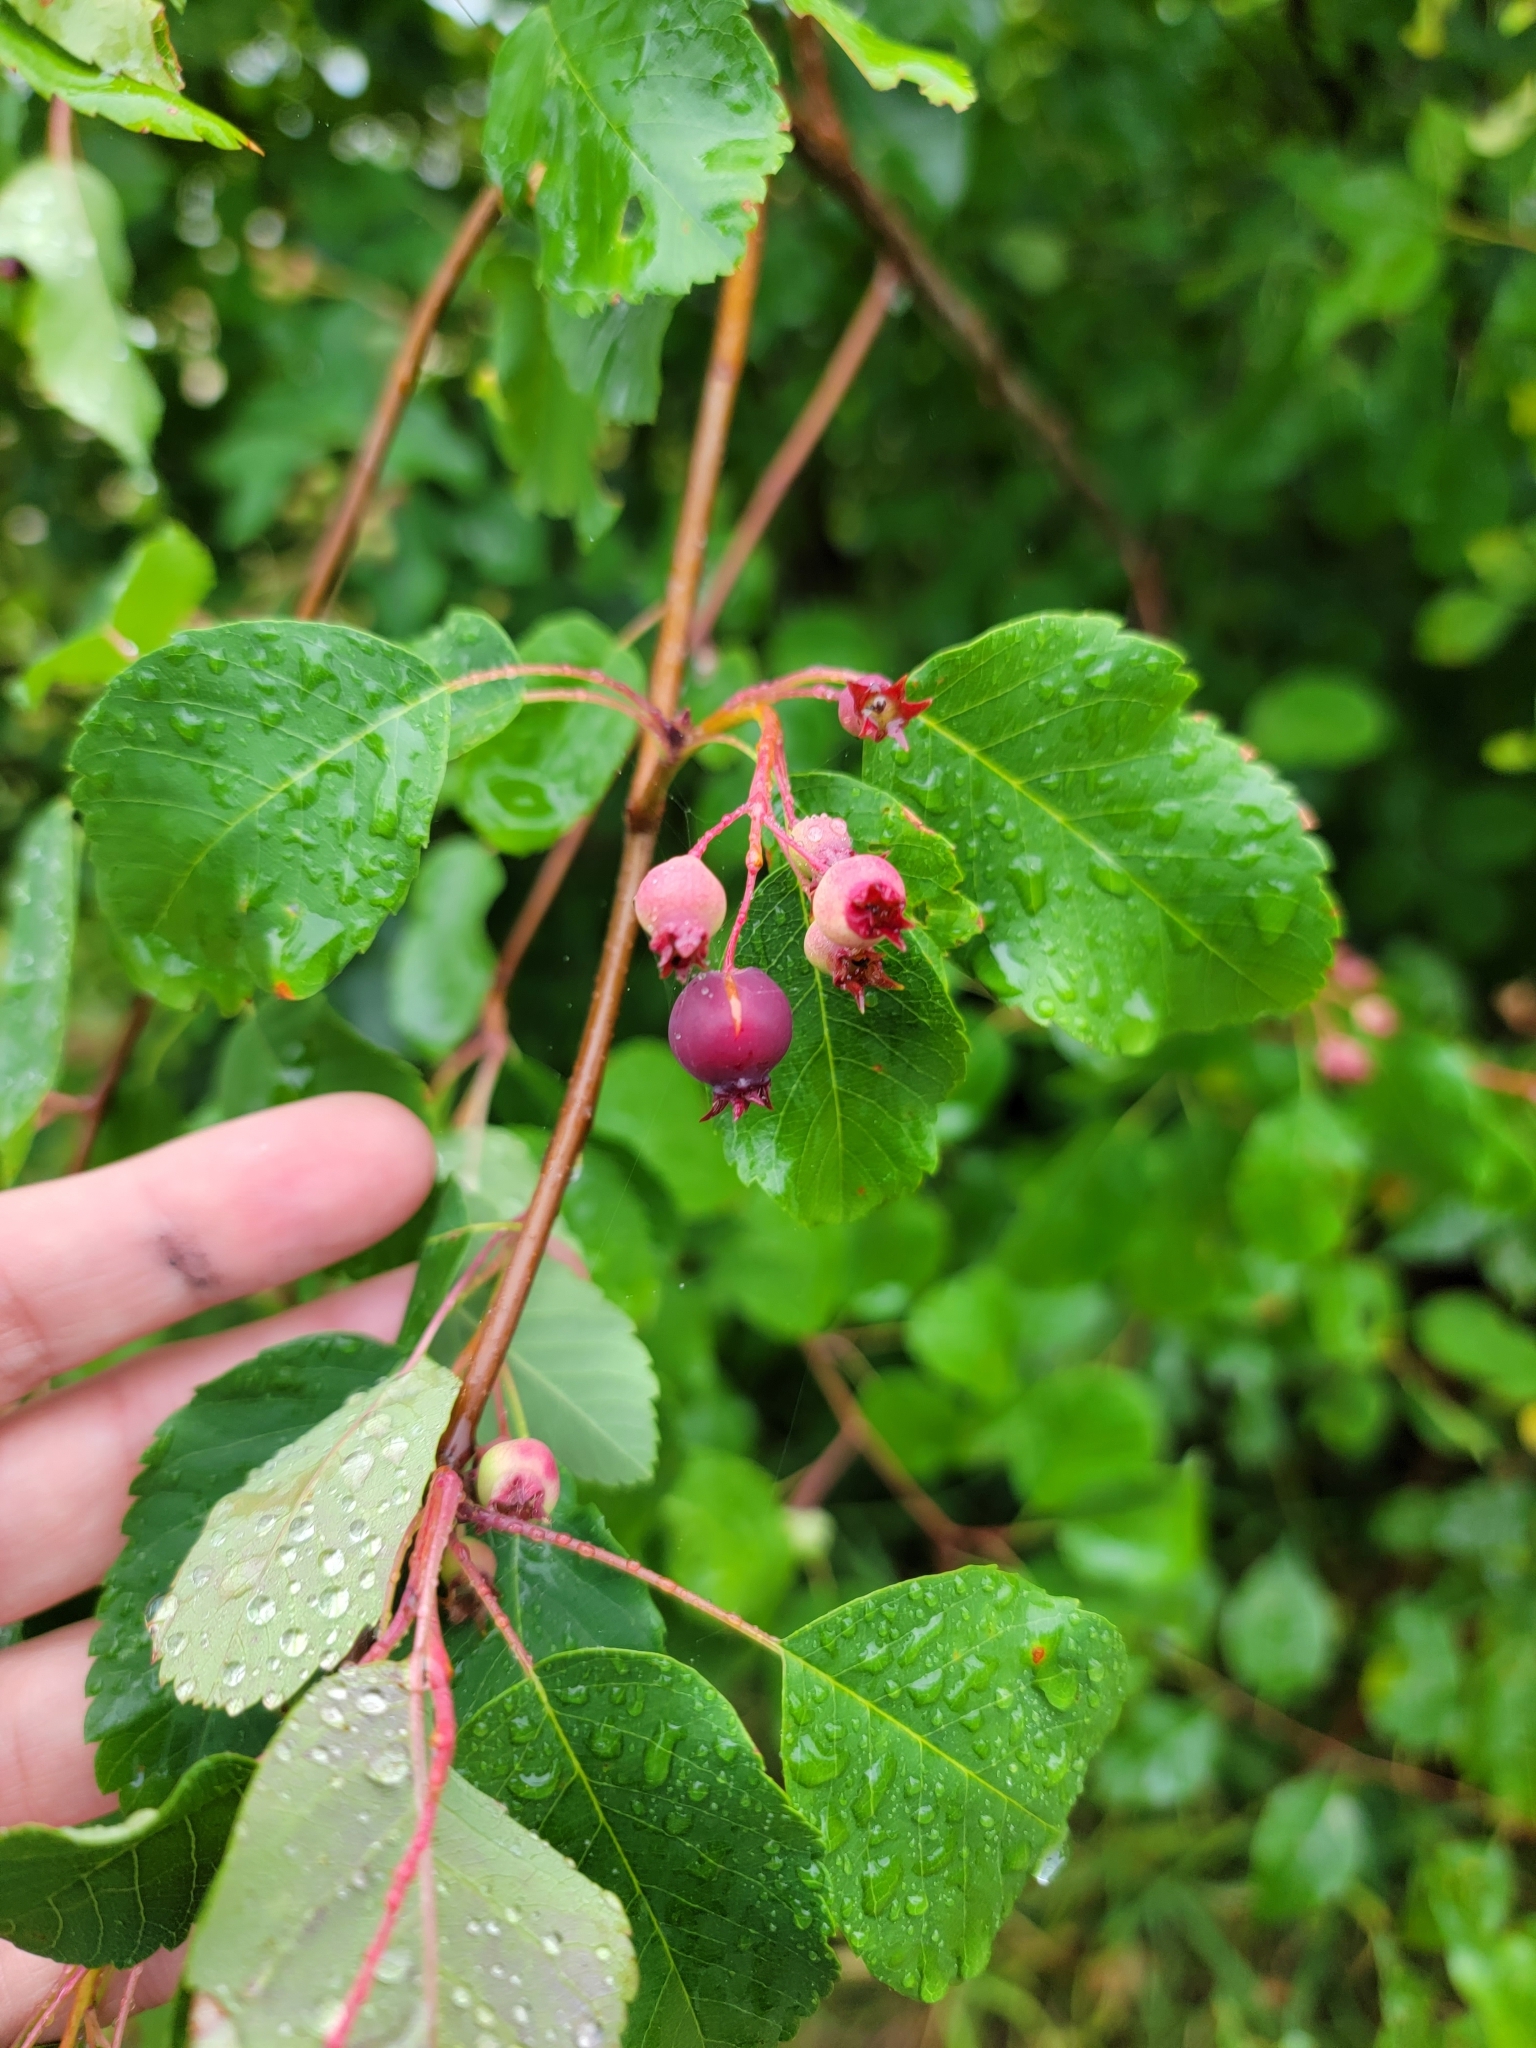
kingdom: Plantae
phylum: Tracheophyta
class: Magnoliopsida
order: Rosales
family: Rosaceae
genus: Amelanchier
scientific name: Amelanchier alnifolia
